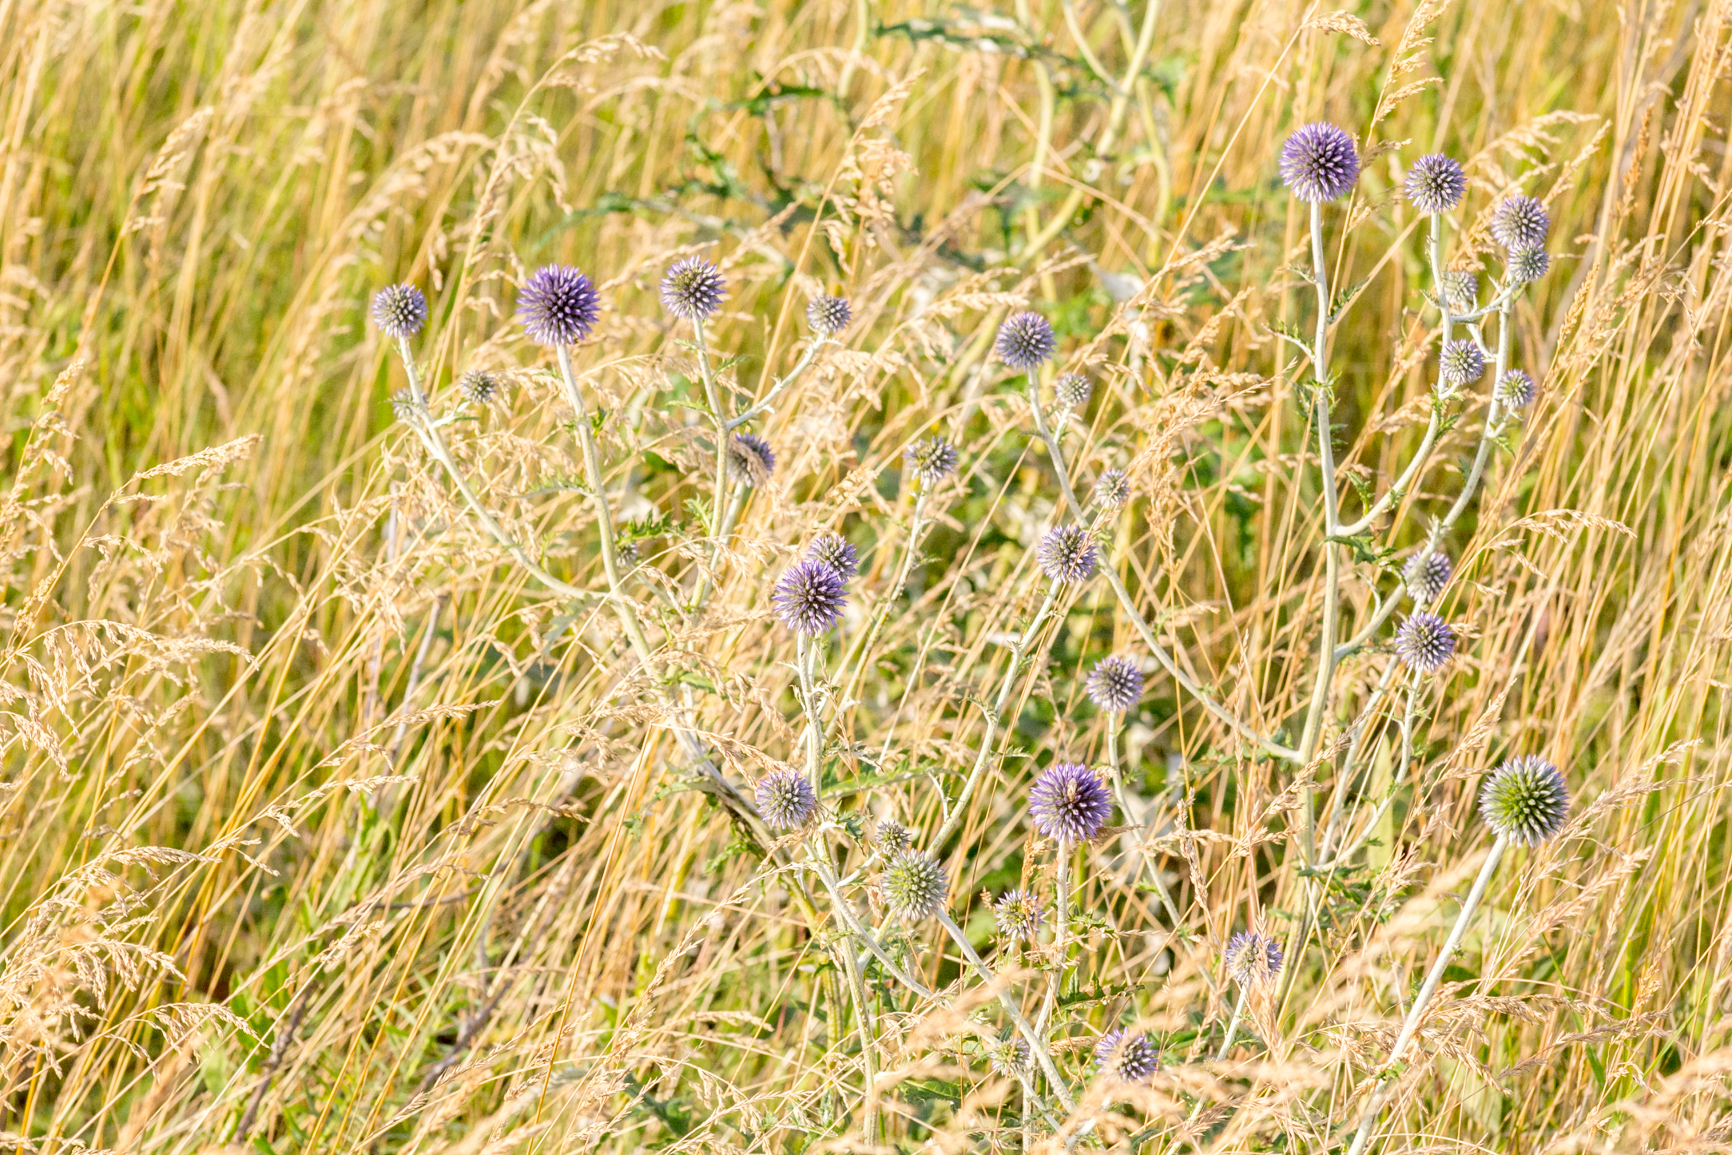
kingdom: Plantae
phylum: Tracheophyta
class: Magnoliopsida
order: Asterales
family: Asteraceae
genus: Echinops
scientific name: Echinops ritro
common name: Globe thistle
